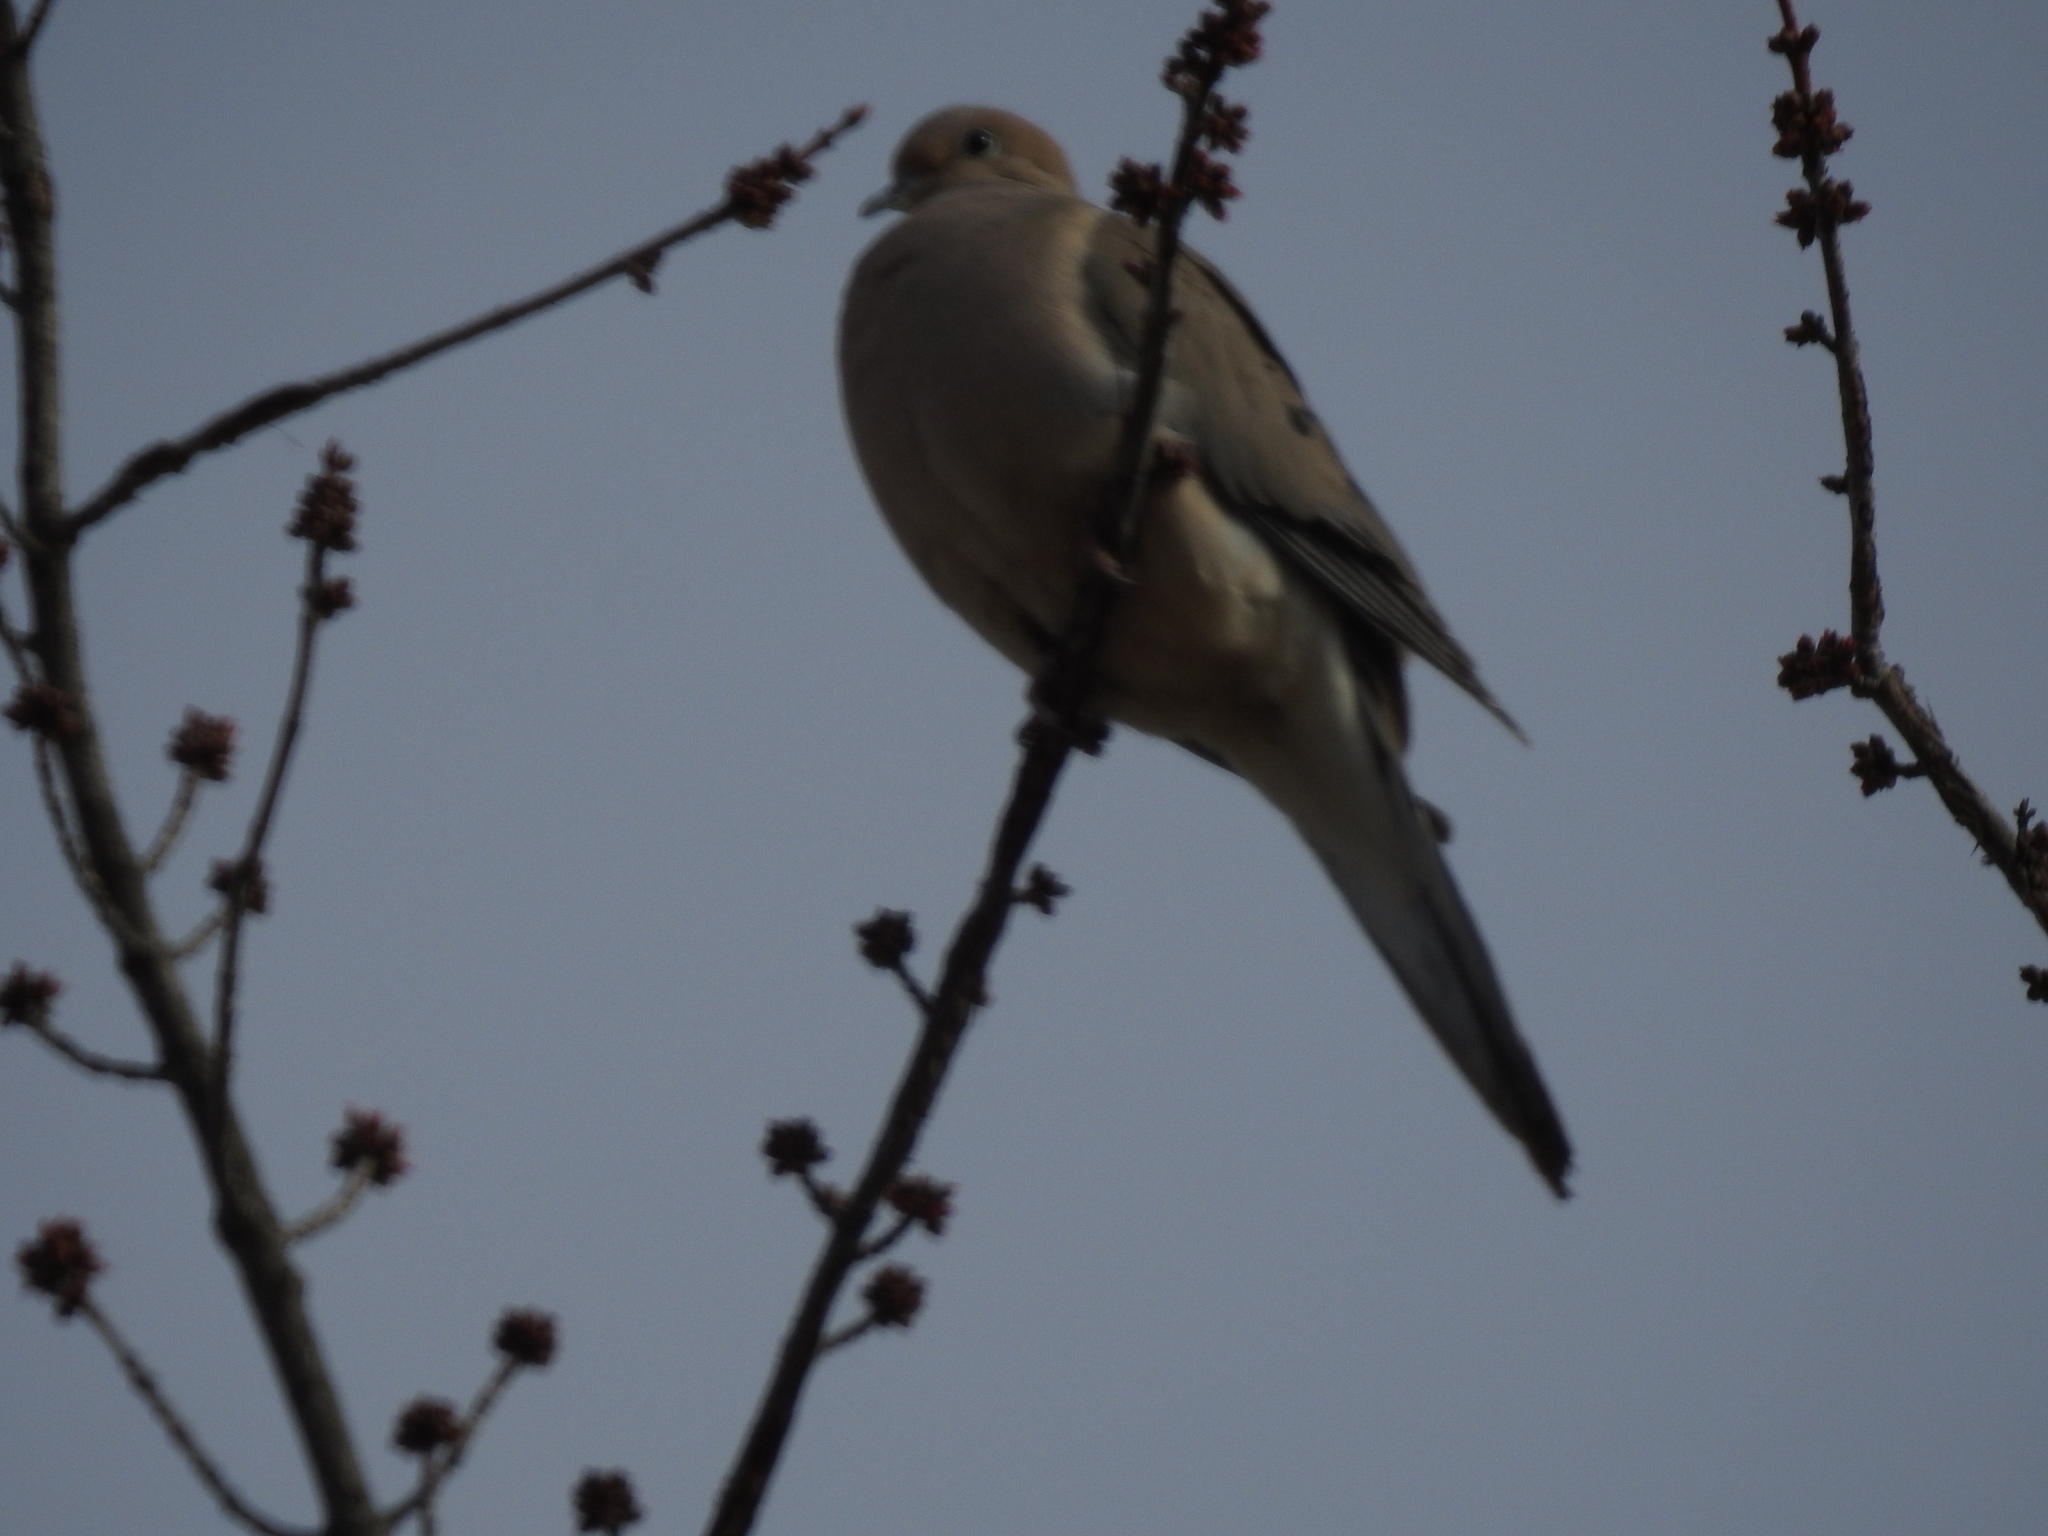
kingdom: Animalia
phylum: Chordata
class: Aves
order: Columbiformes
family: Columbidae
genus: Zenaida
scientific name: Zenaida macroura
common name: Mourning dove
